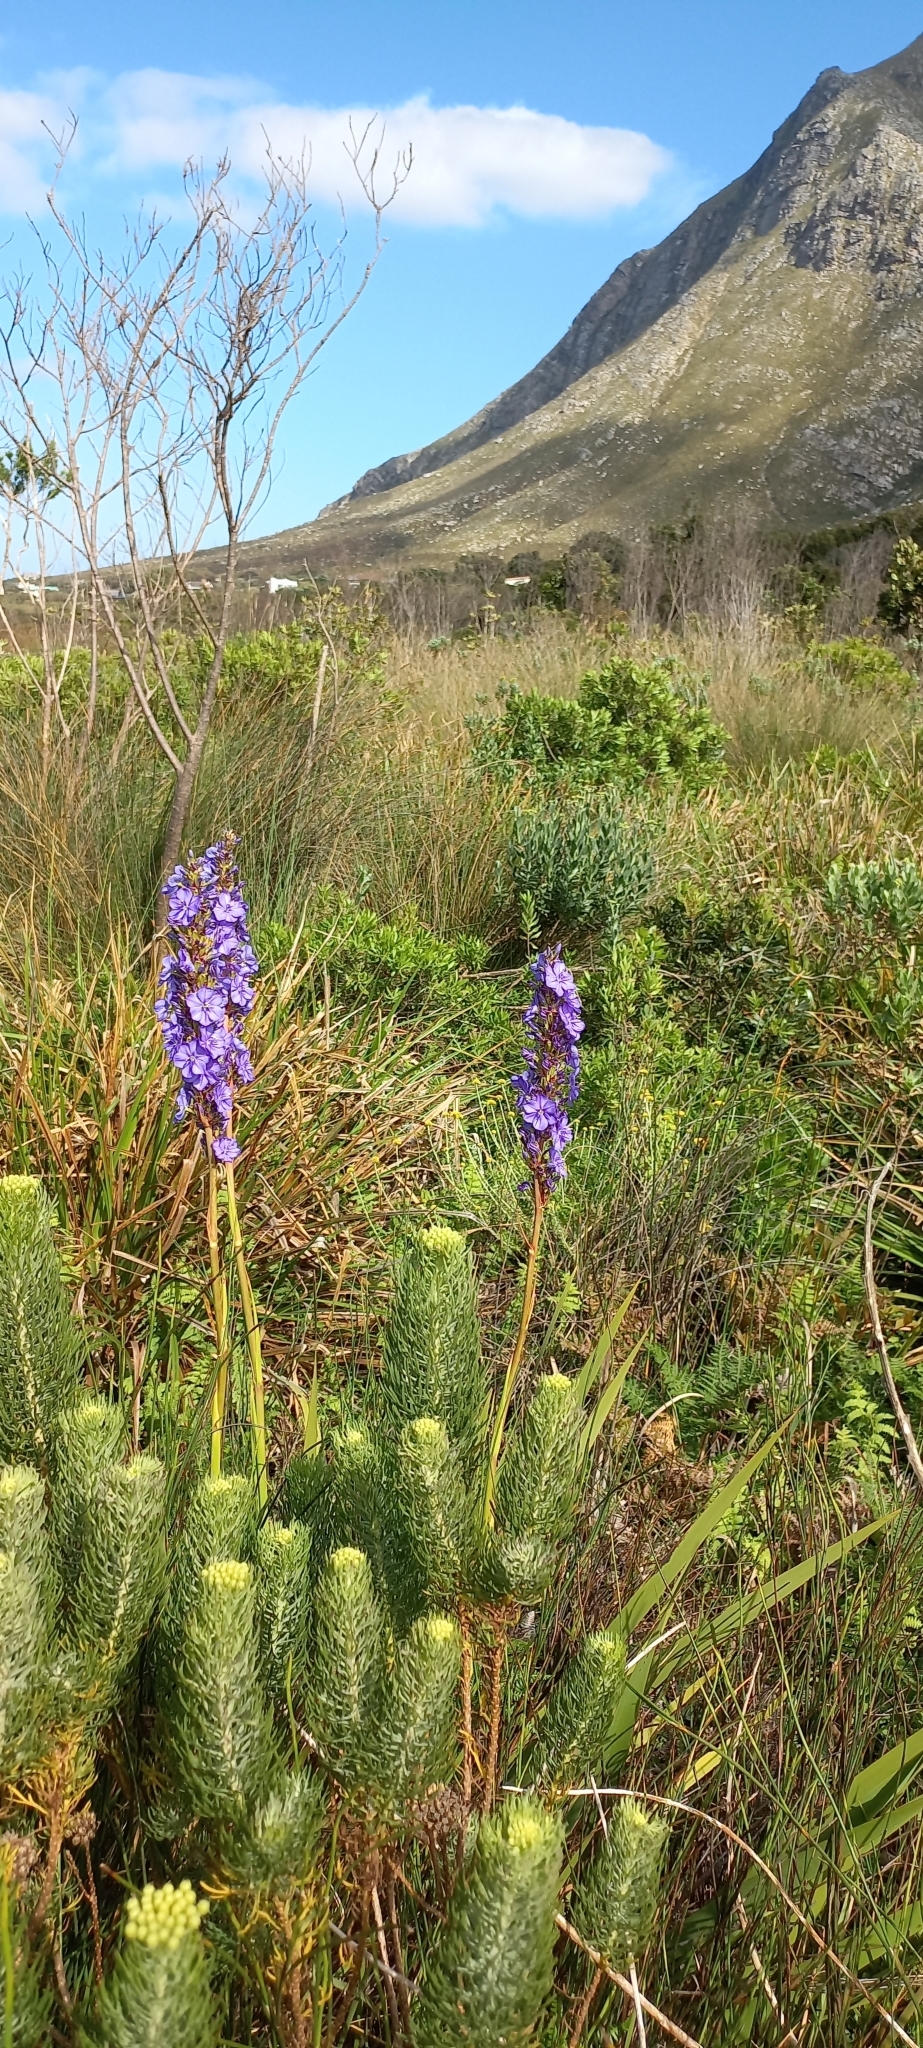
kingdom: Plantae
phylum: Tracheophyta
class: Liliopsida
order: Asparagales
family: Iridaceae
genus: Aristea
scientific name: Aristea capitata
